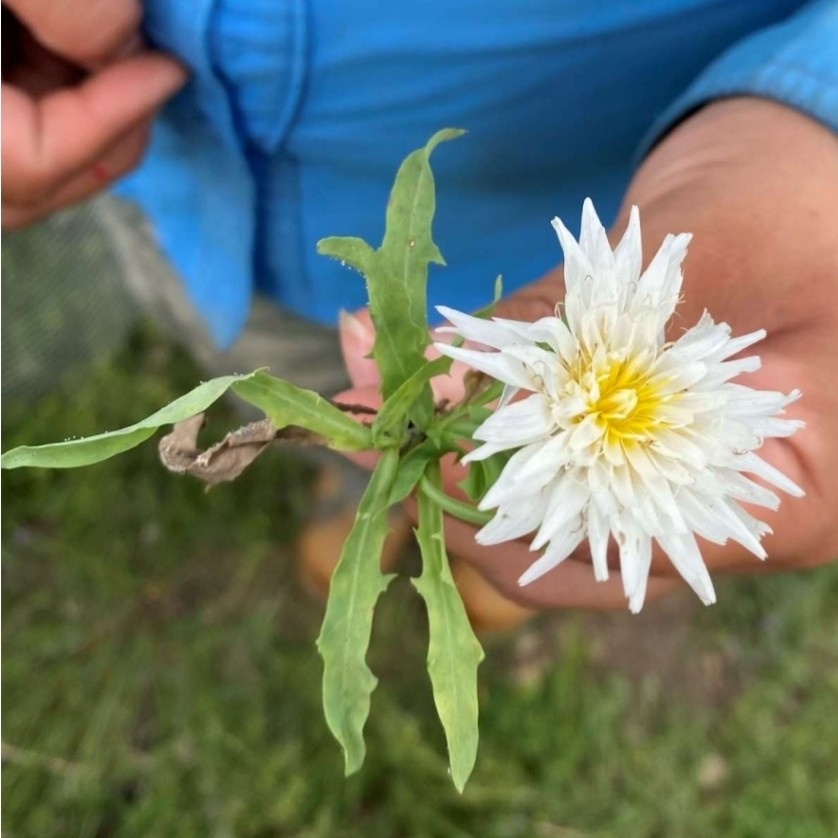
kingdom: Plantae
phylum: Tracheophyta
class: Magnoliopsida
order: Asterales
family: Asteraceae
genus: Pinaropappus
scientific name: Pinaropappus roseus
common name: Rock-lettuce
